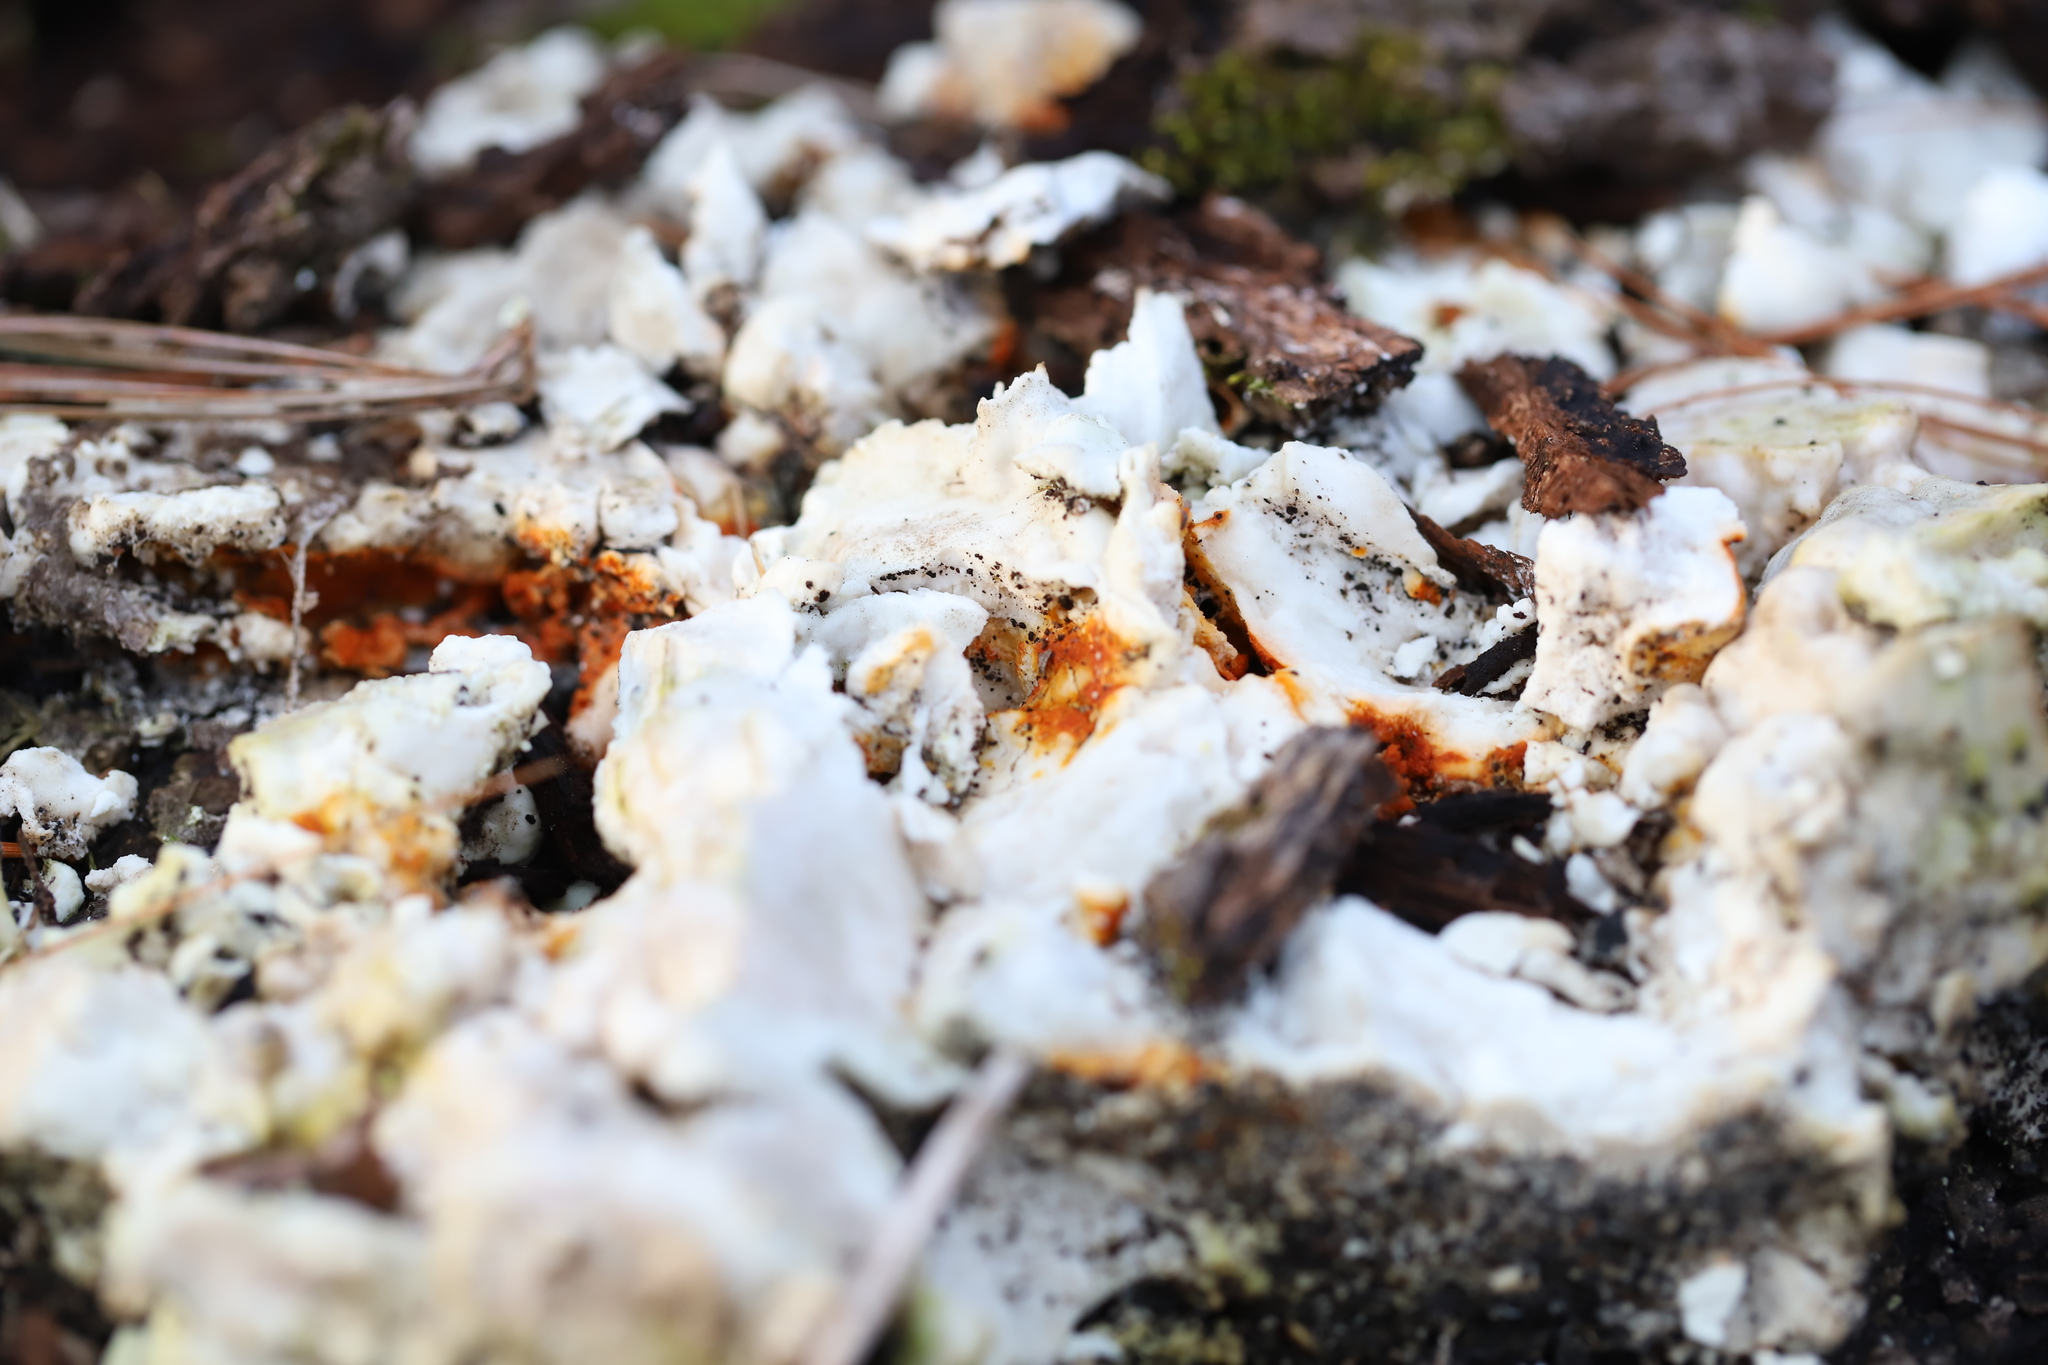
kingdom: Fungi
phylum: Basidiomycota
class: Agaricomycetes
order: Polyporales
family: Laetiporaceae
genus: Laetiporus
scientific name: Laetiporus sulphureus
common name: Chicken of the woods
